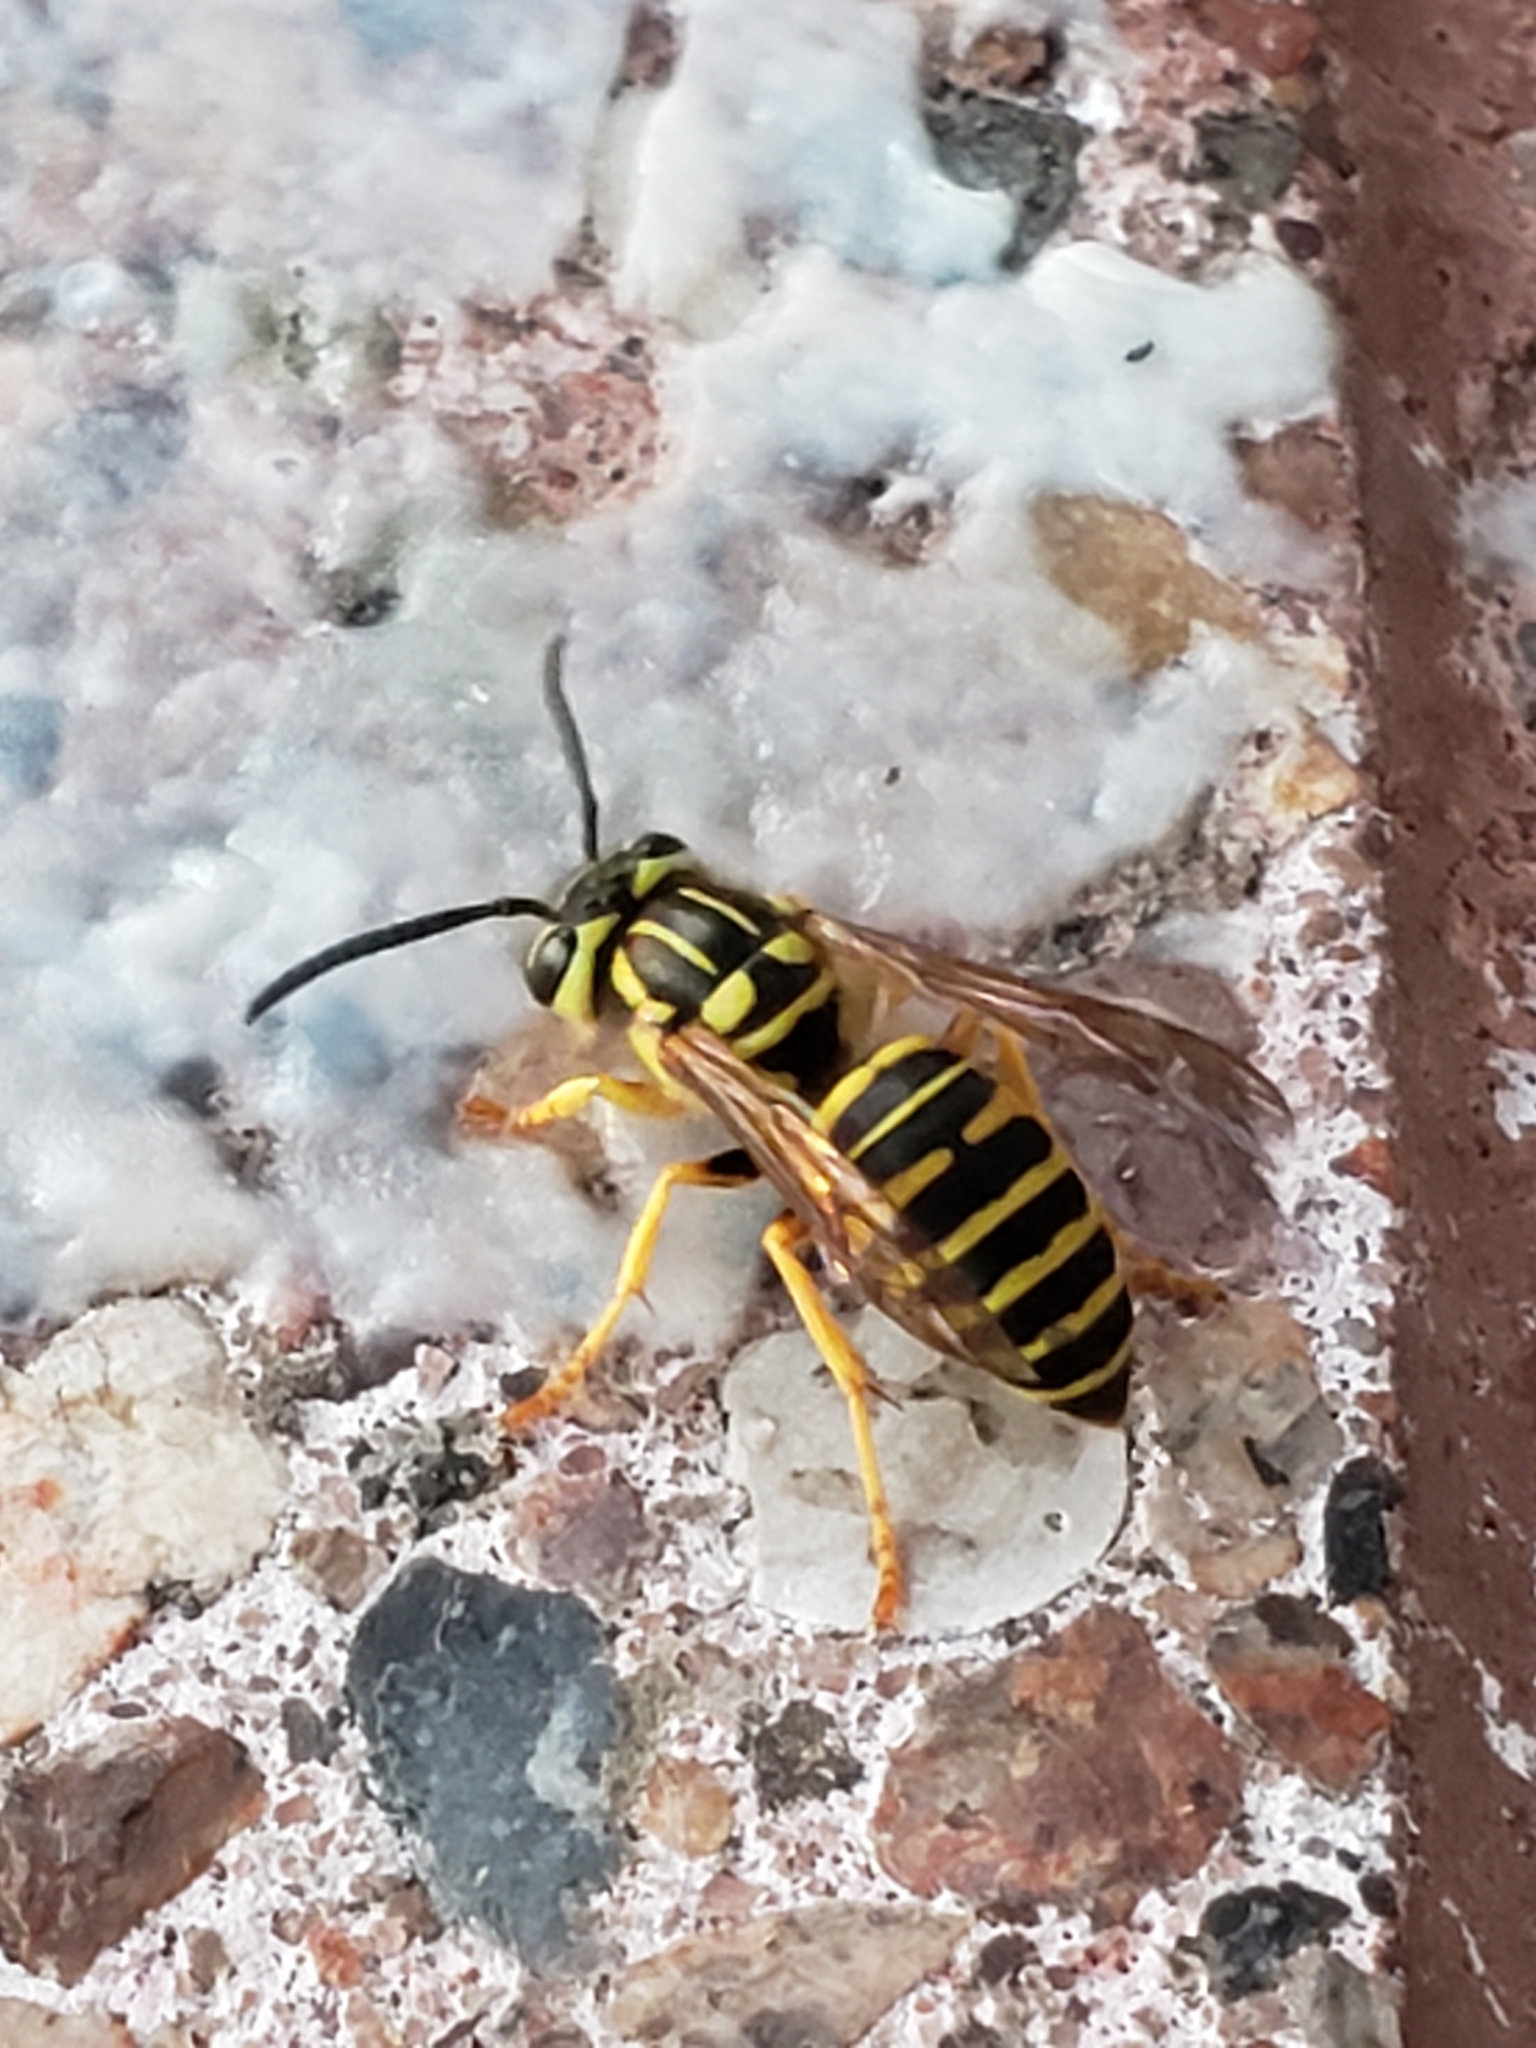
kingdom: Animalia
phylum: Arthropoda
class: Insecta
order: Hymenoptera
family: Vespidae
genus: Vespula
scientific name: Vespula squamosa
